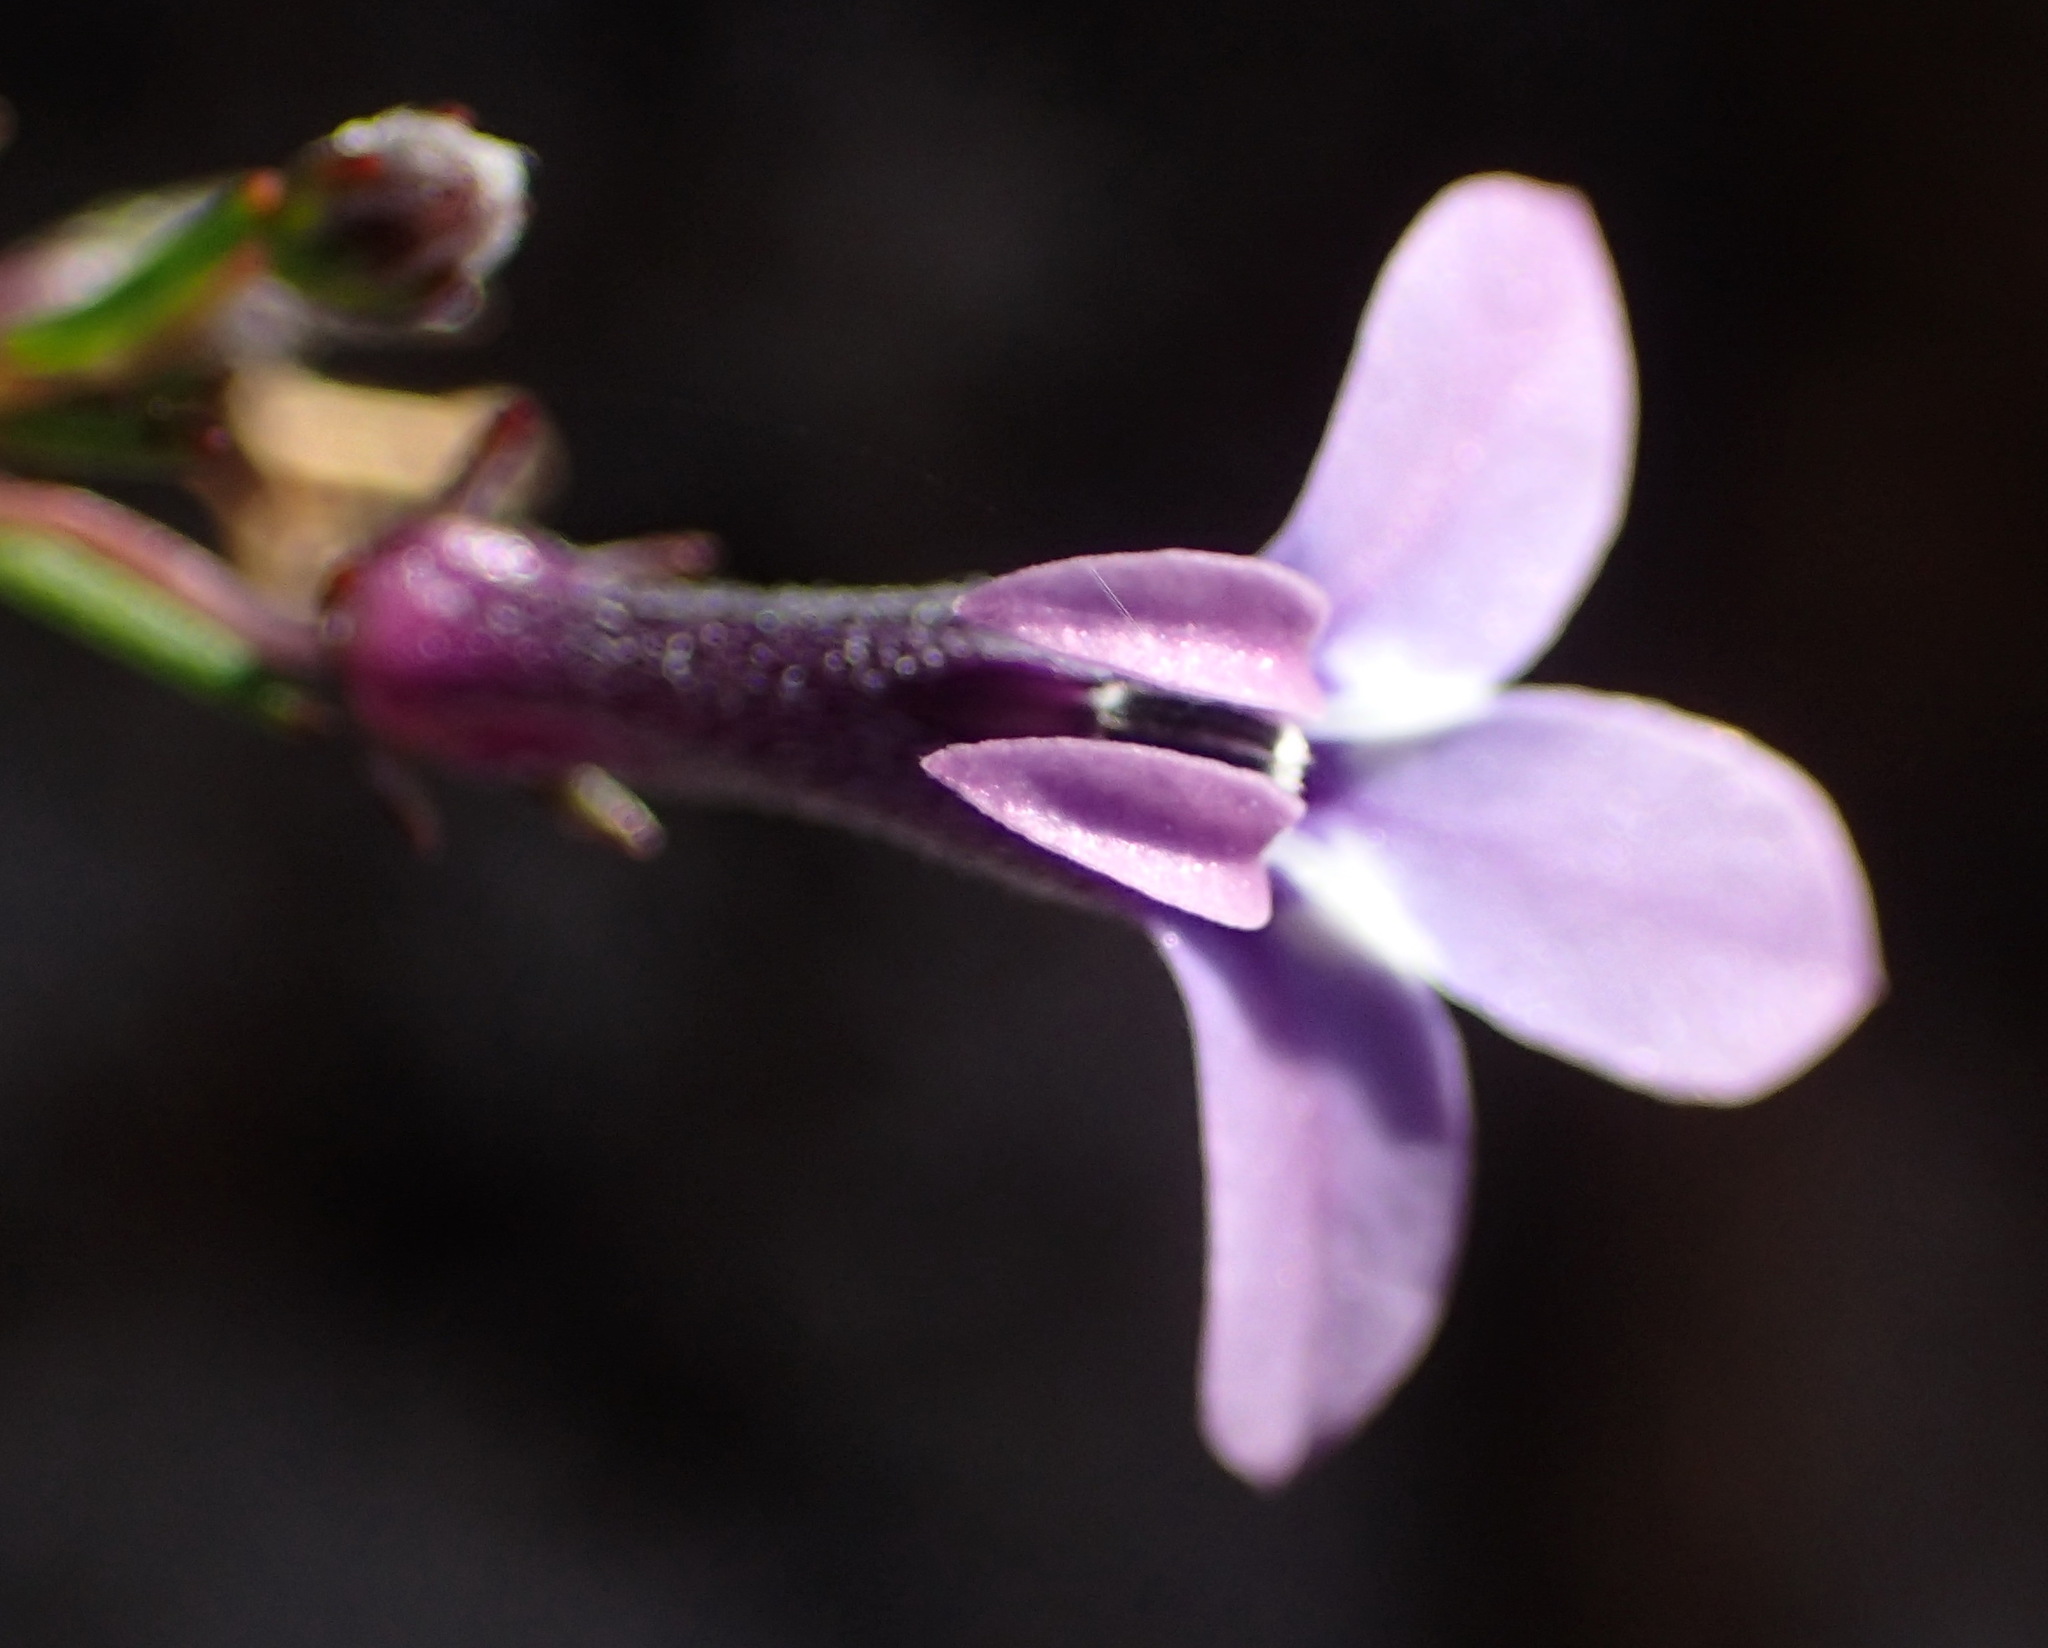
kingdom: Plantae
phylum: Tracheophyta
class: Magnoliopsida
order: Asterales
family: Campanulaceae
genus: Lobelia
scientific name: Lobelia setacea
